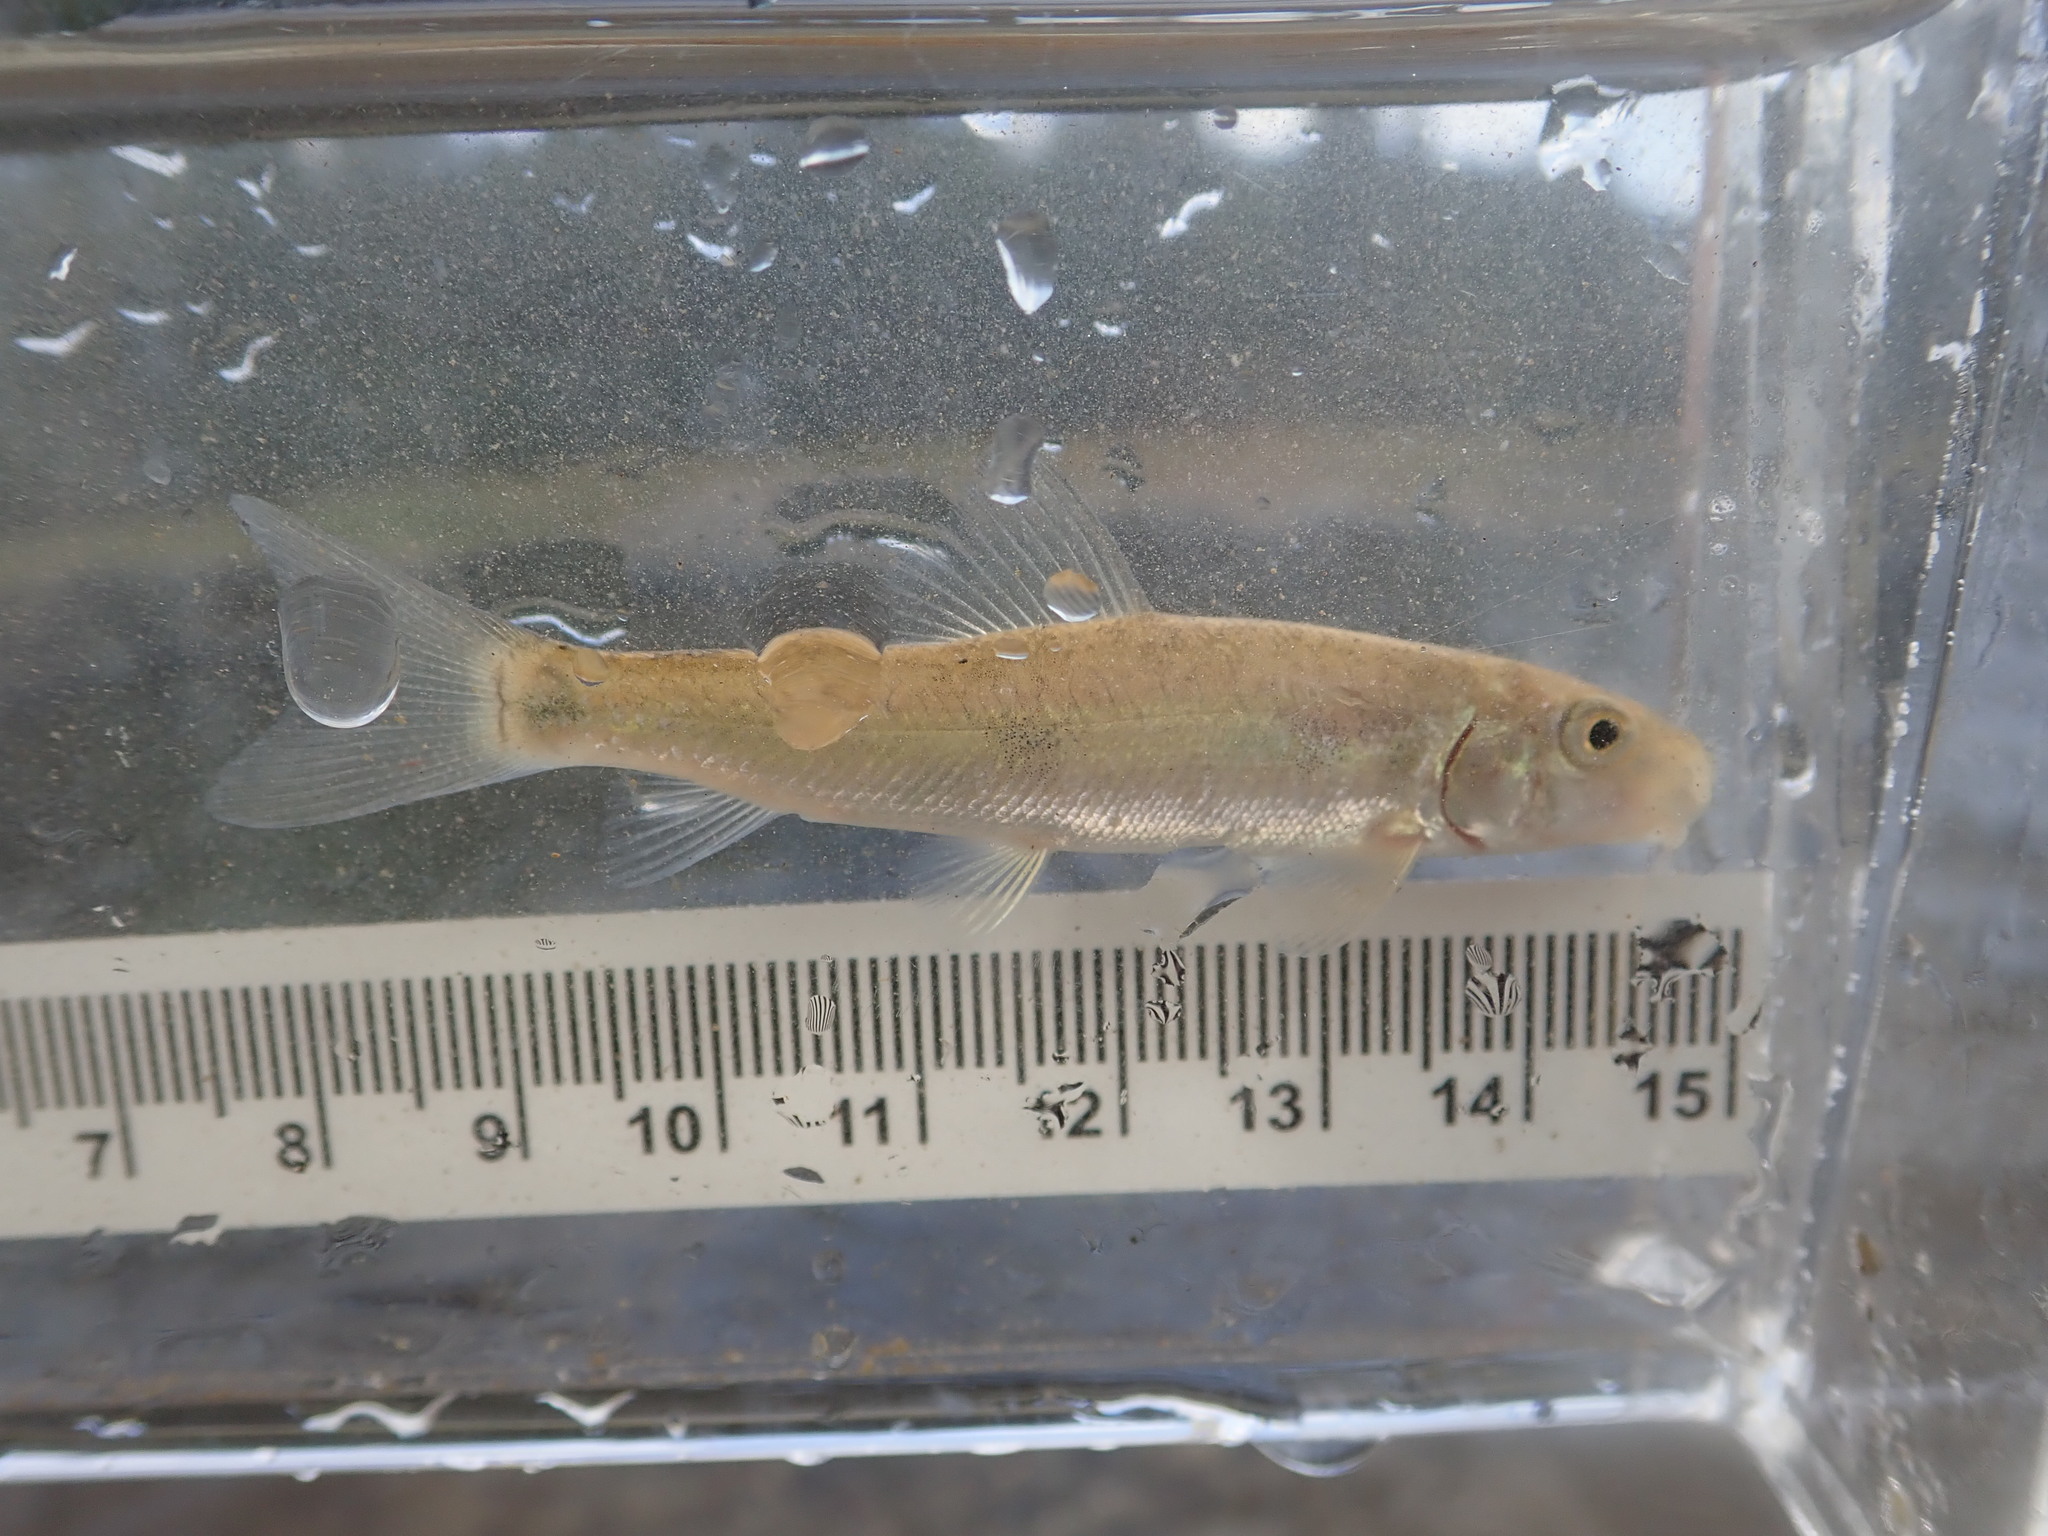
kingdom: Animalia
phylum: Chordata
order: Cypriniformes
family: Catostomidae
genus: Catostomus
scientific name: Catostomus commersonii
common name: White sucker
